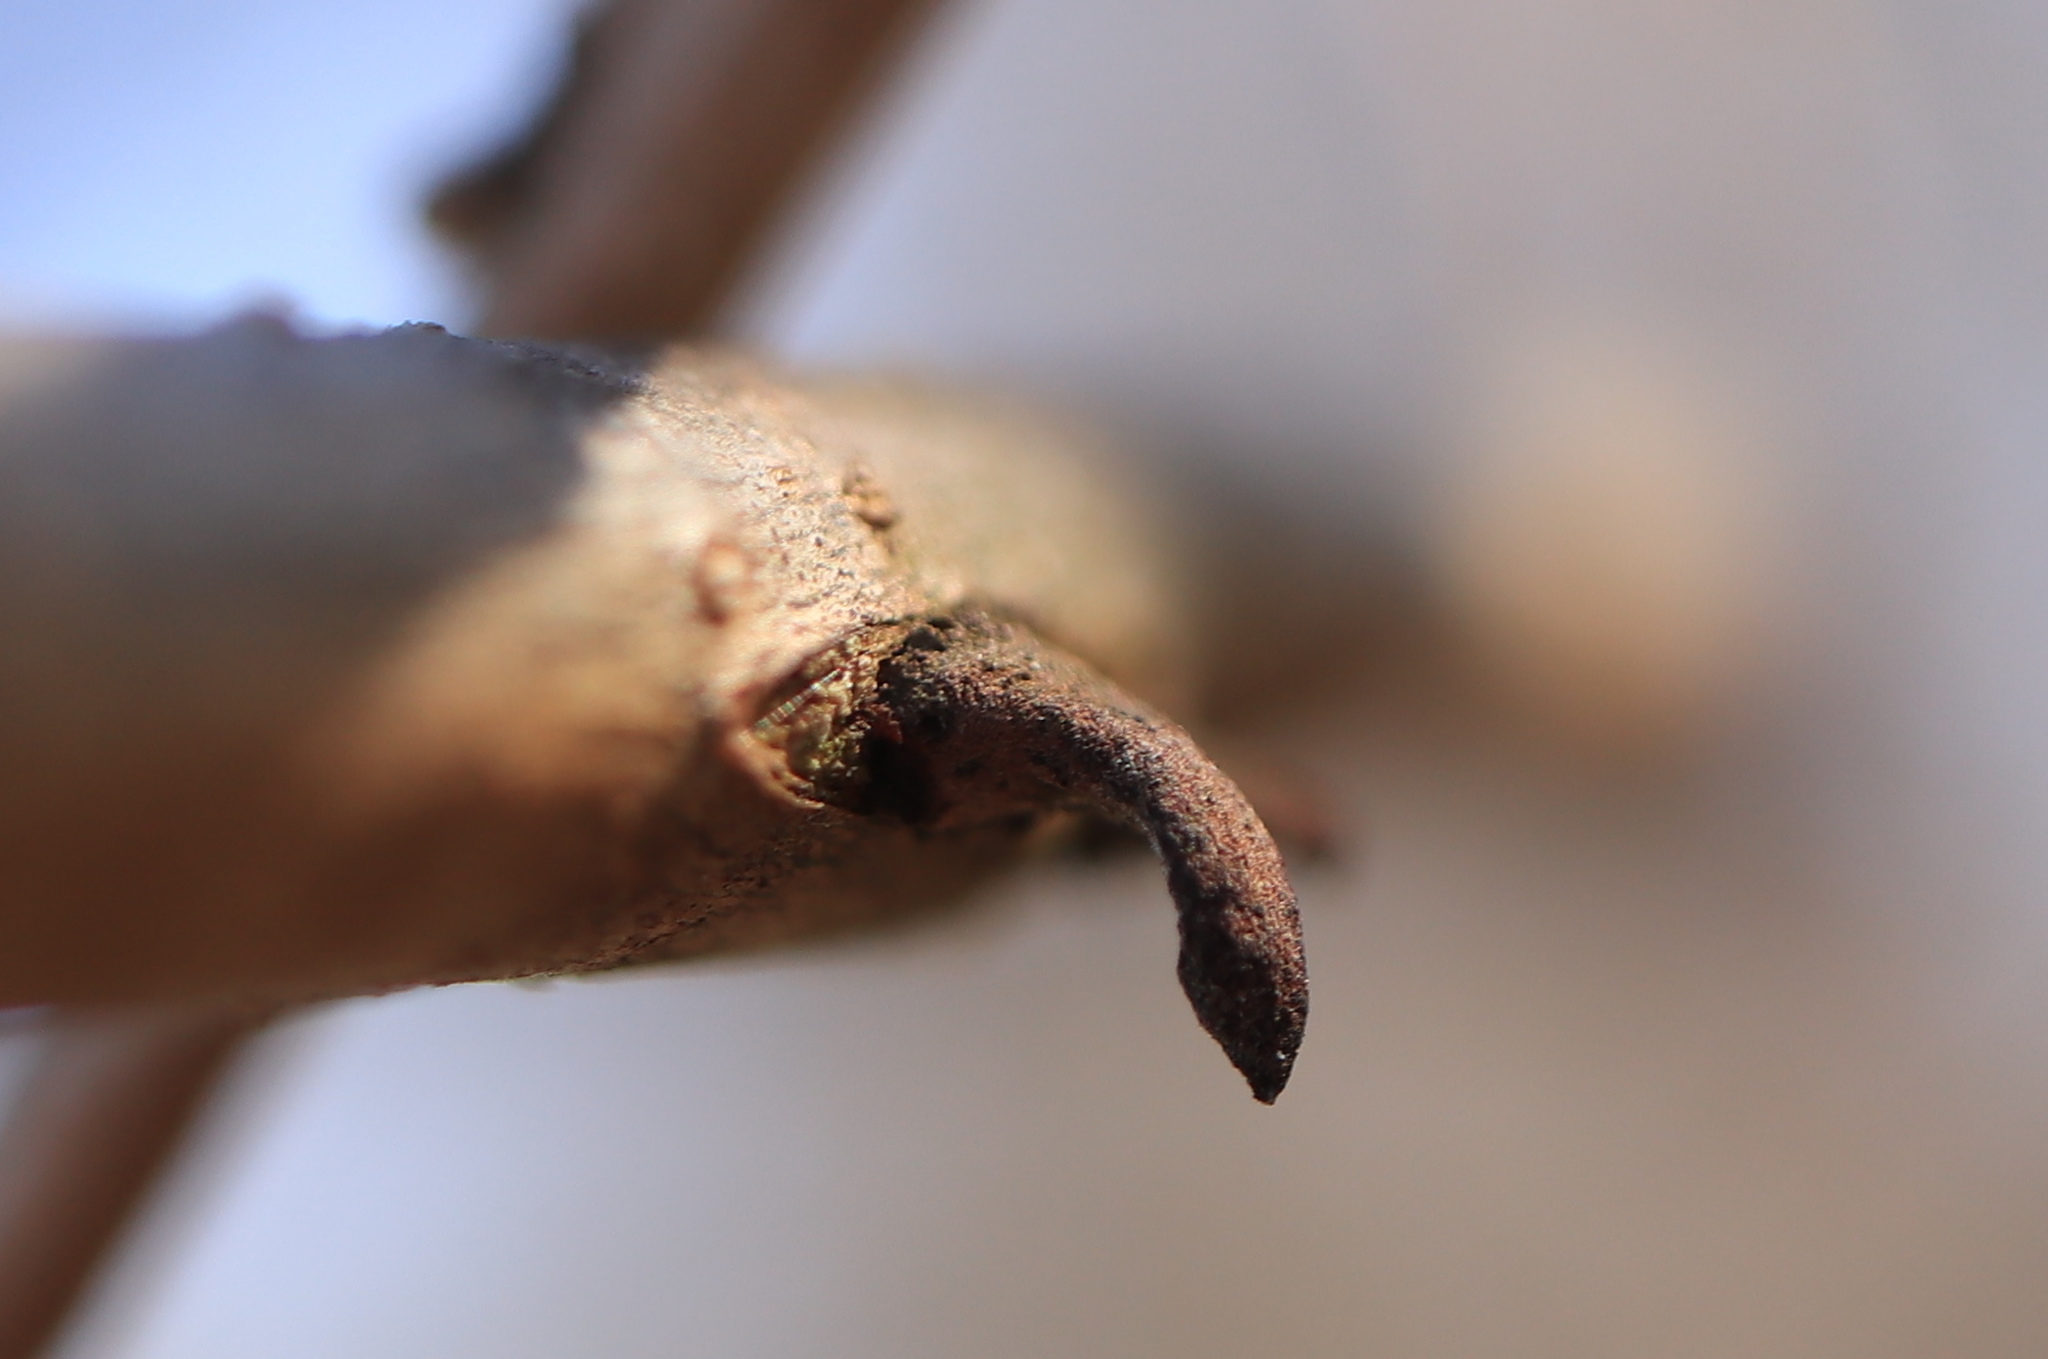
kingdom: Animalia
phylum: Arthropoda
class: Insecta
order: Hymenoptera
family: Cynipidae
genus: Disholcaspis
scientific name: Disholcaspis
